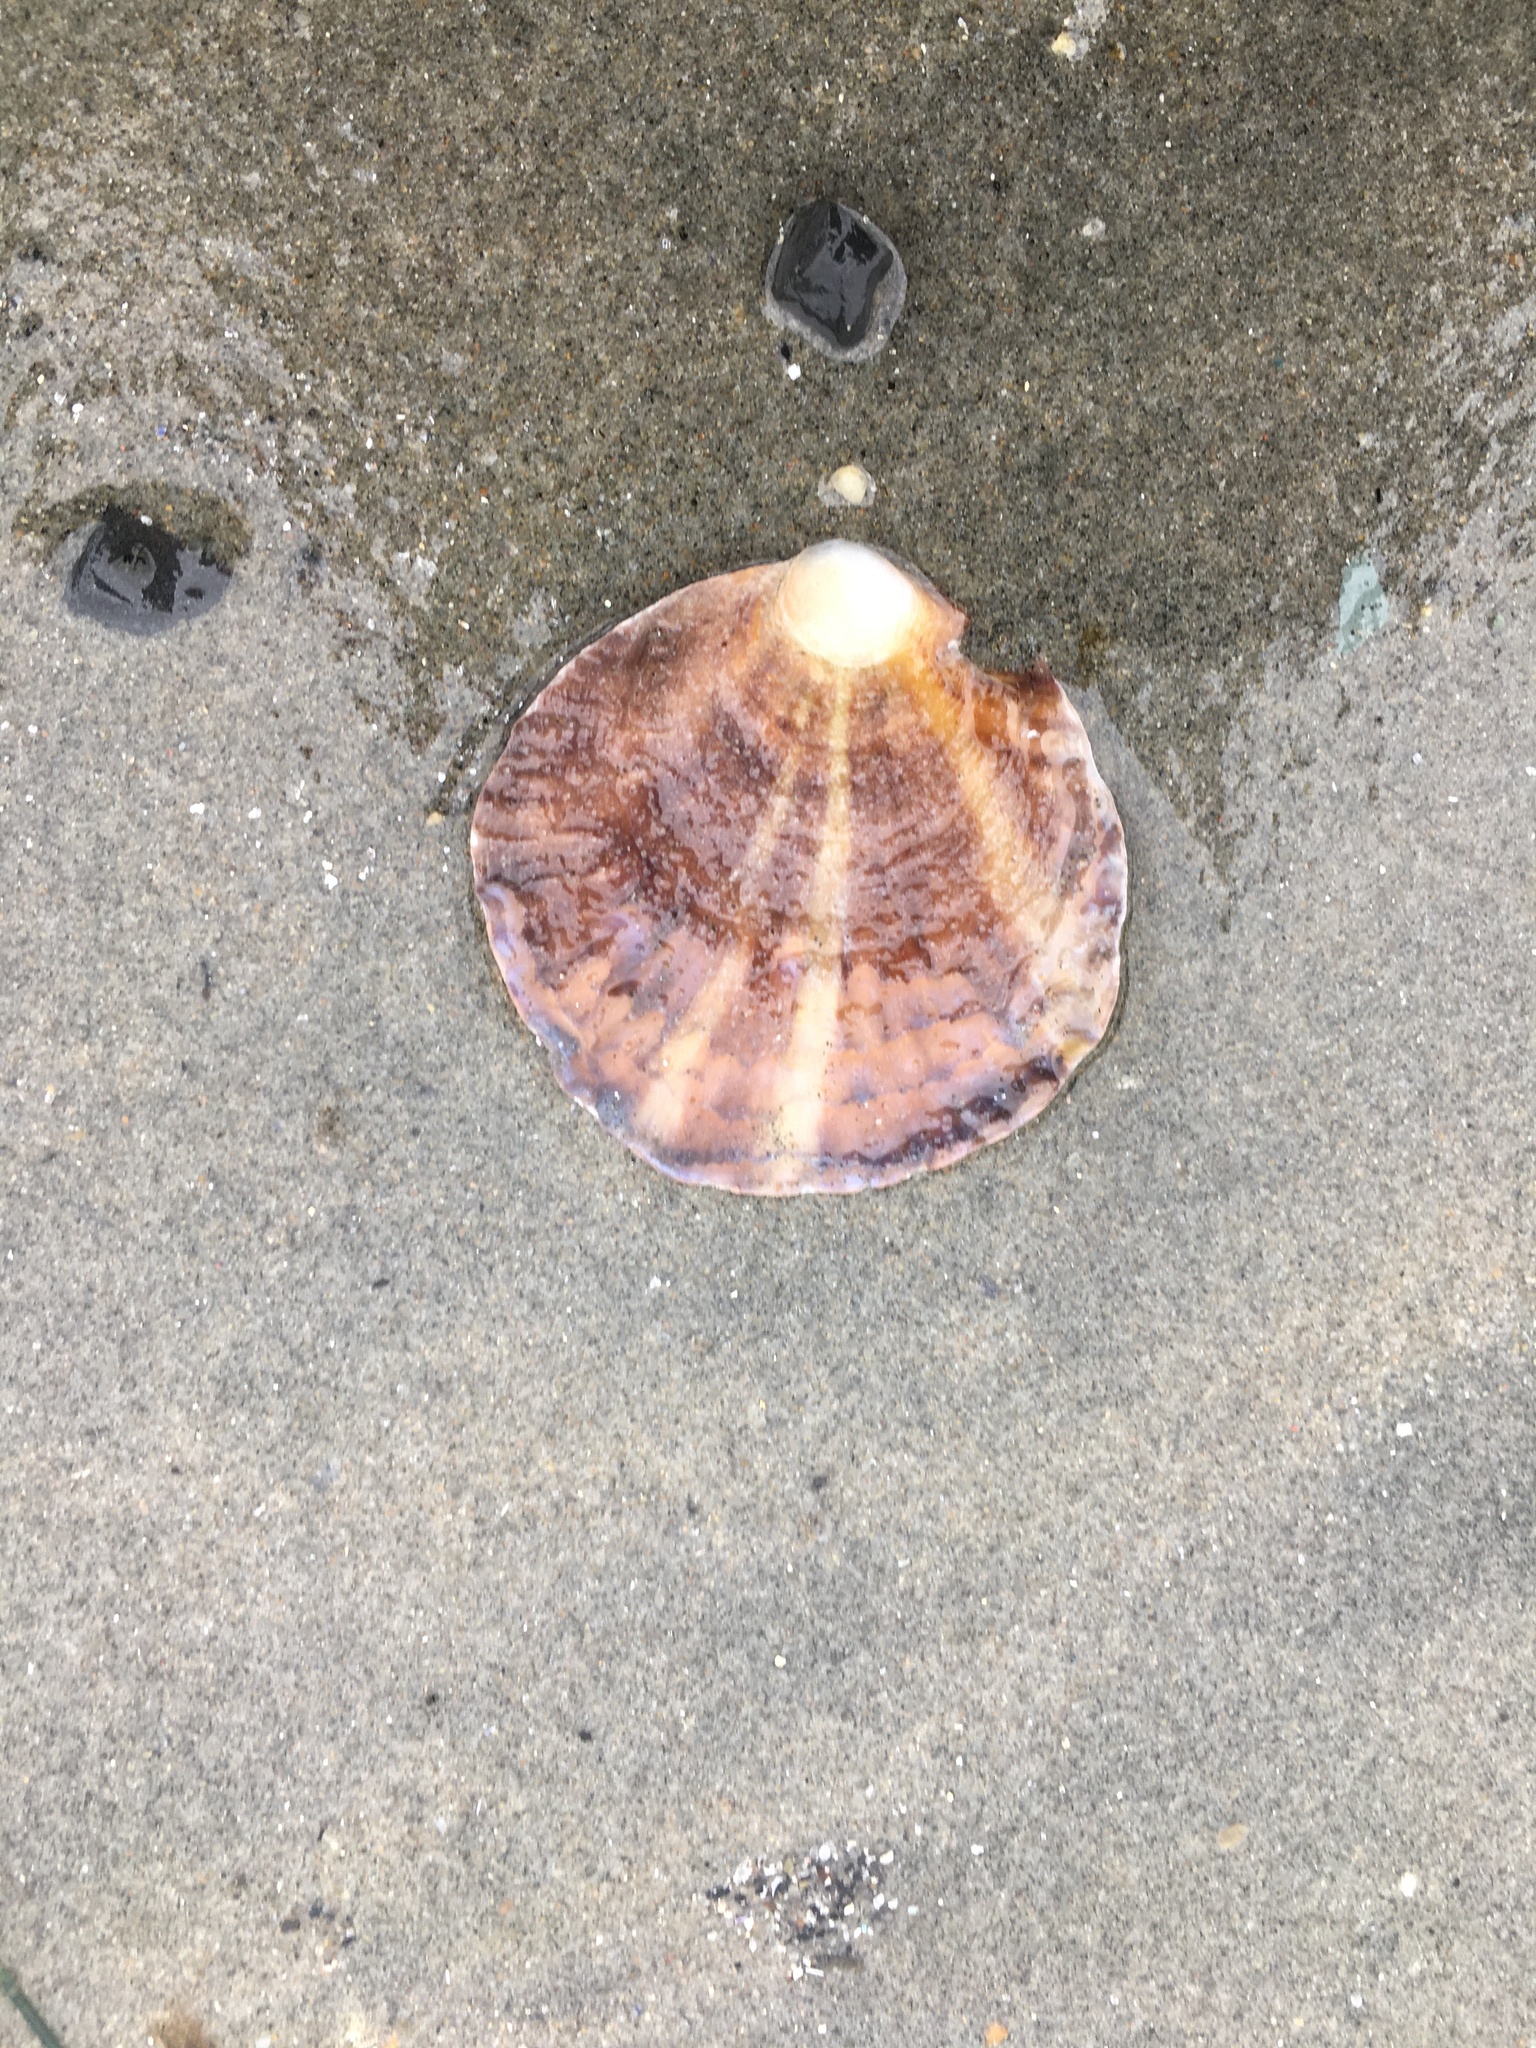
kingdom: Animalia
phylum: Mollusca
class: Bivalvia
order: Ostreida
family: Ostreidae
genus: Ostrea
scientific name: Ostrea edulis
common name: Flat oyster
